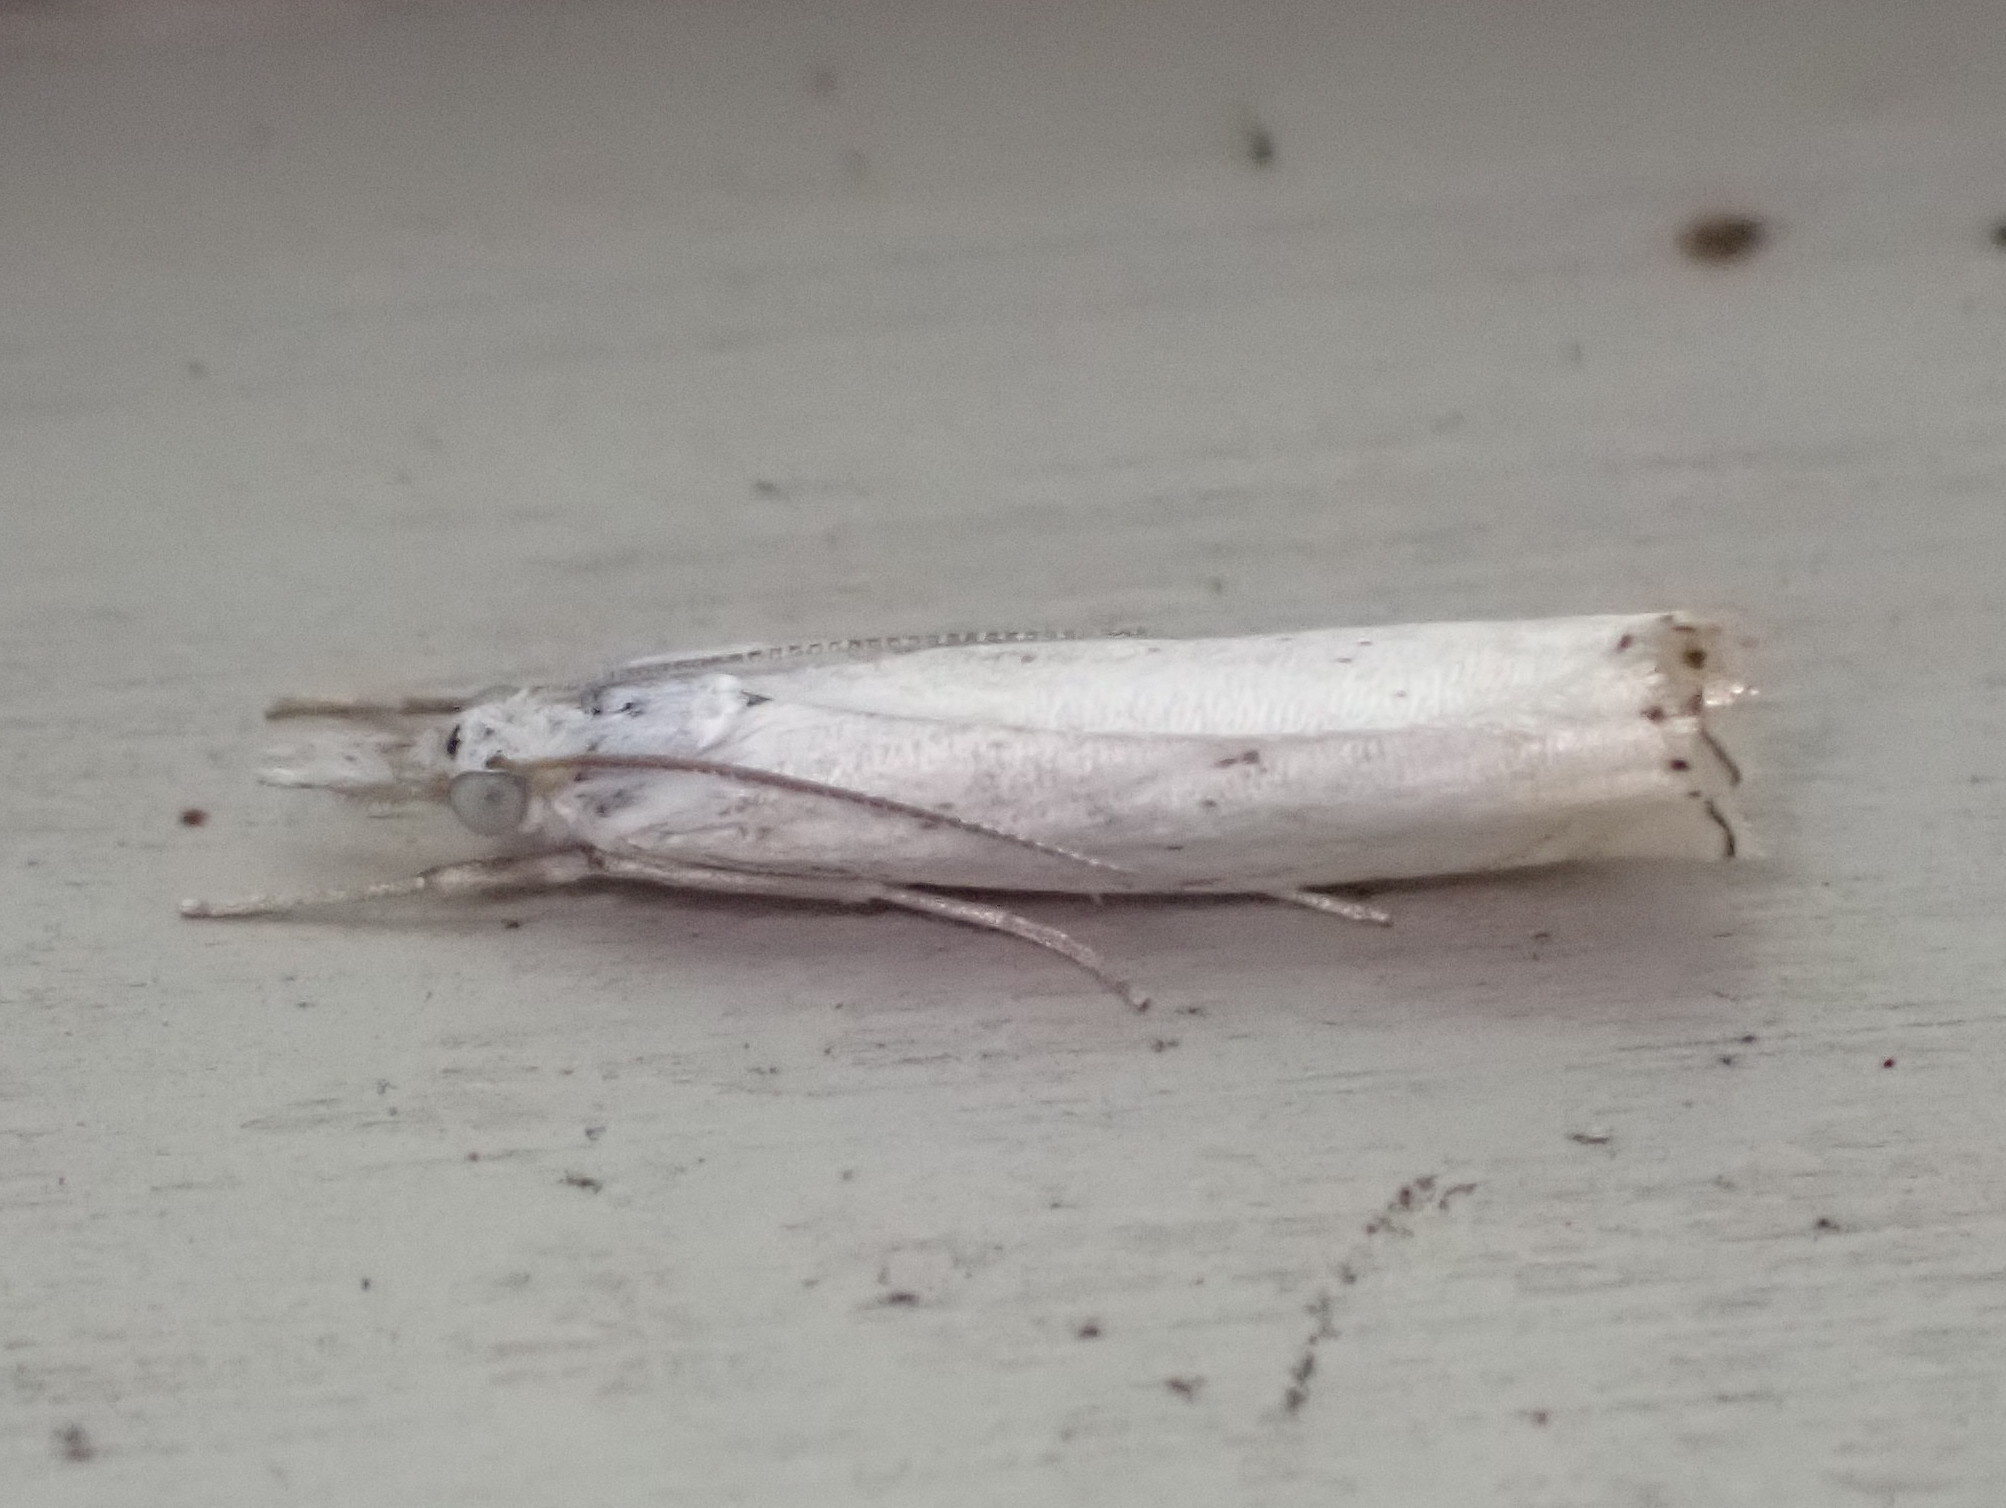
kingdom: Animalia
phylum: Arthropoda
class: Insecta
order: Lepidoptera
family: Crambidae
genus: Crambus
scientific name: Crambus albellus
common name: Small white grass-veneer
